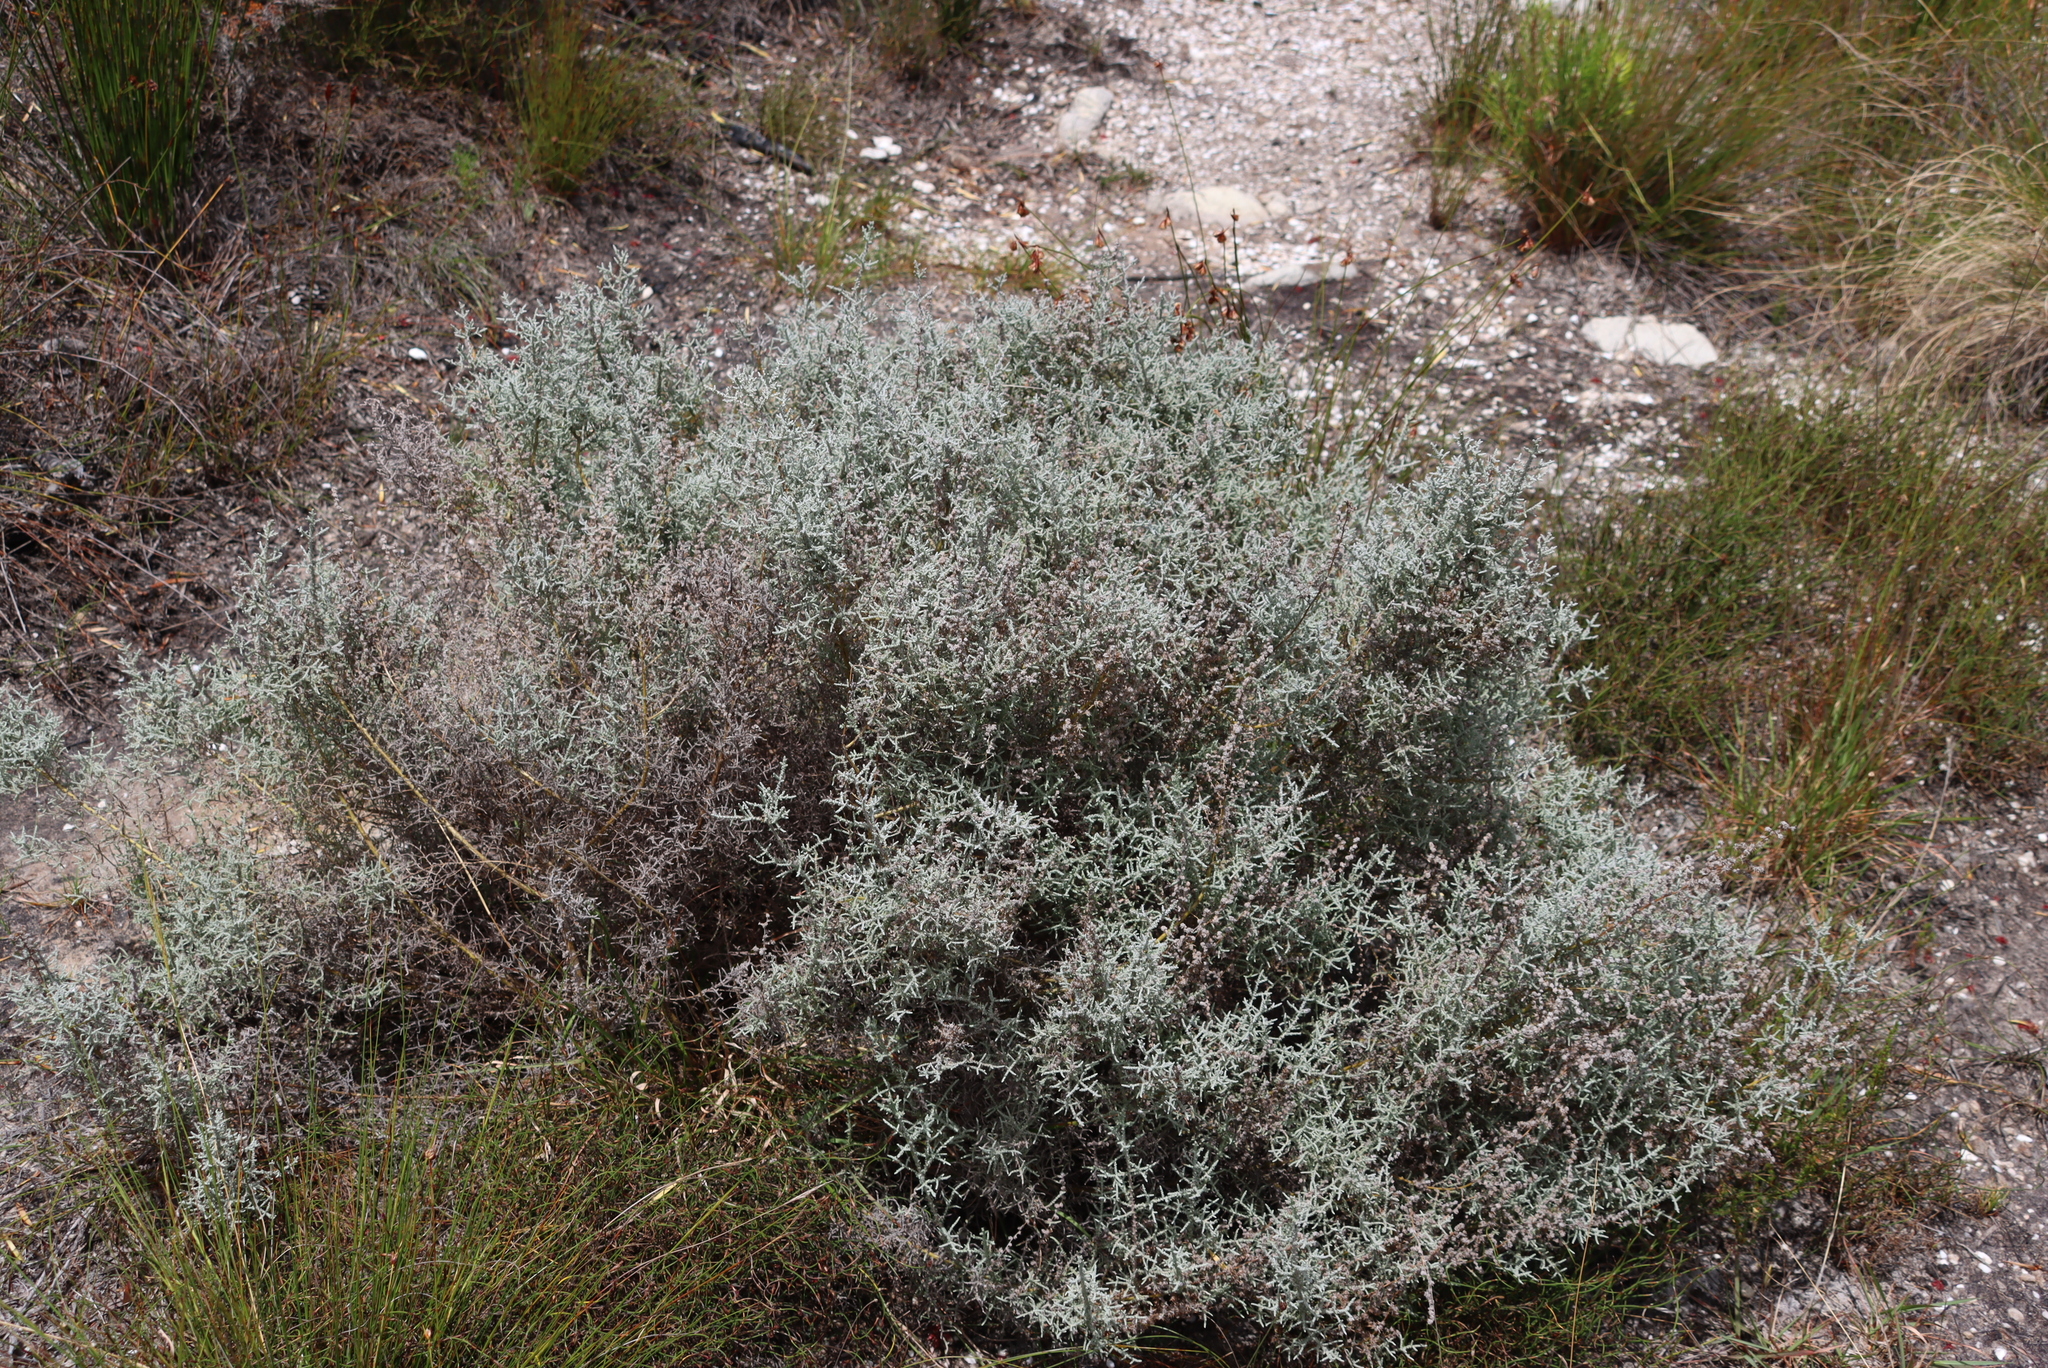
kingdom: Plantae
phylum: Tracheophyta
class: Magnoliopsida
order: Asterales
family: Asteraceae
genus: Seriphium
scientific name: Seriphium plumosum
